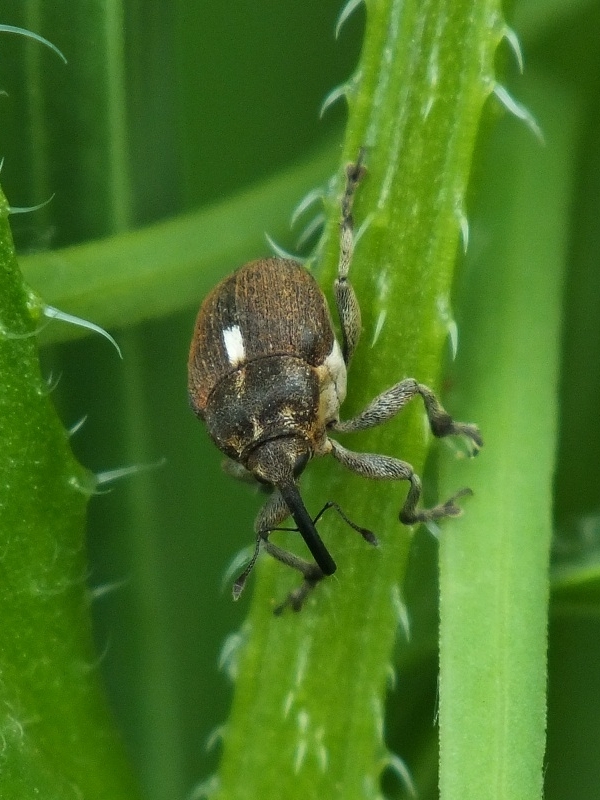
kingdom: Animalia
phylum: Arthropoda
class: Insecta
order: Coleoptera
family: Curculionidae
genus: Glocianus
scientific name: Glocianus herbsti
